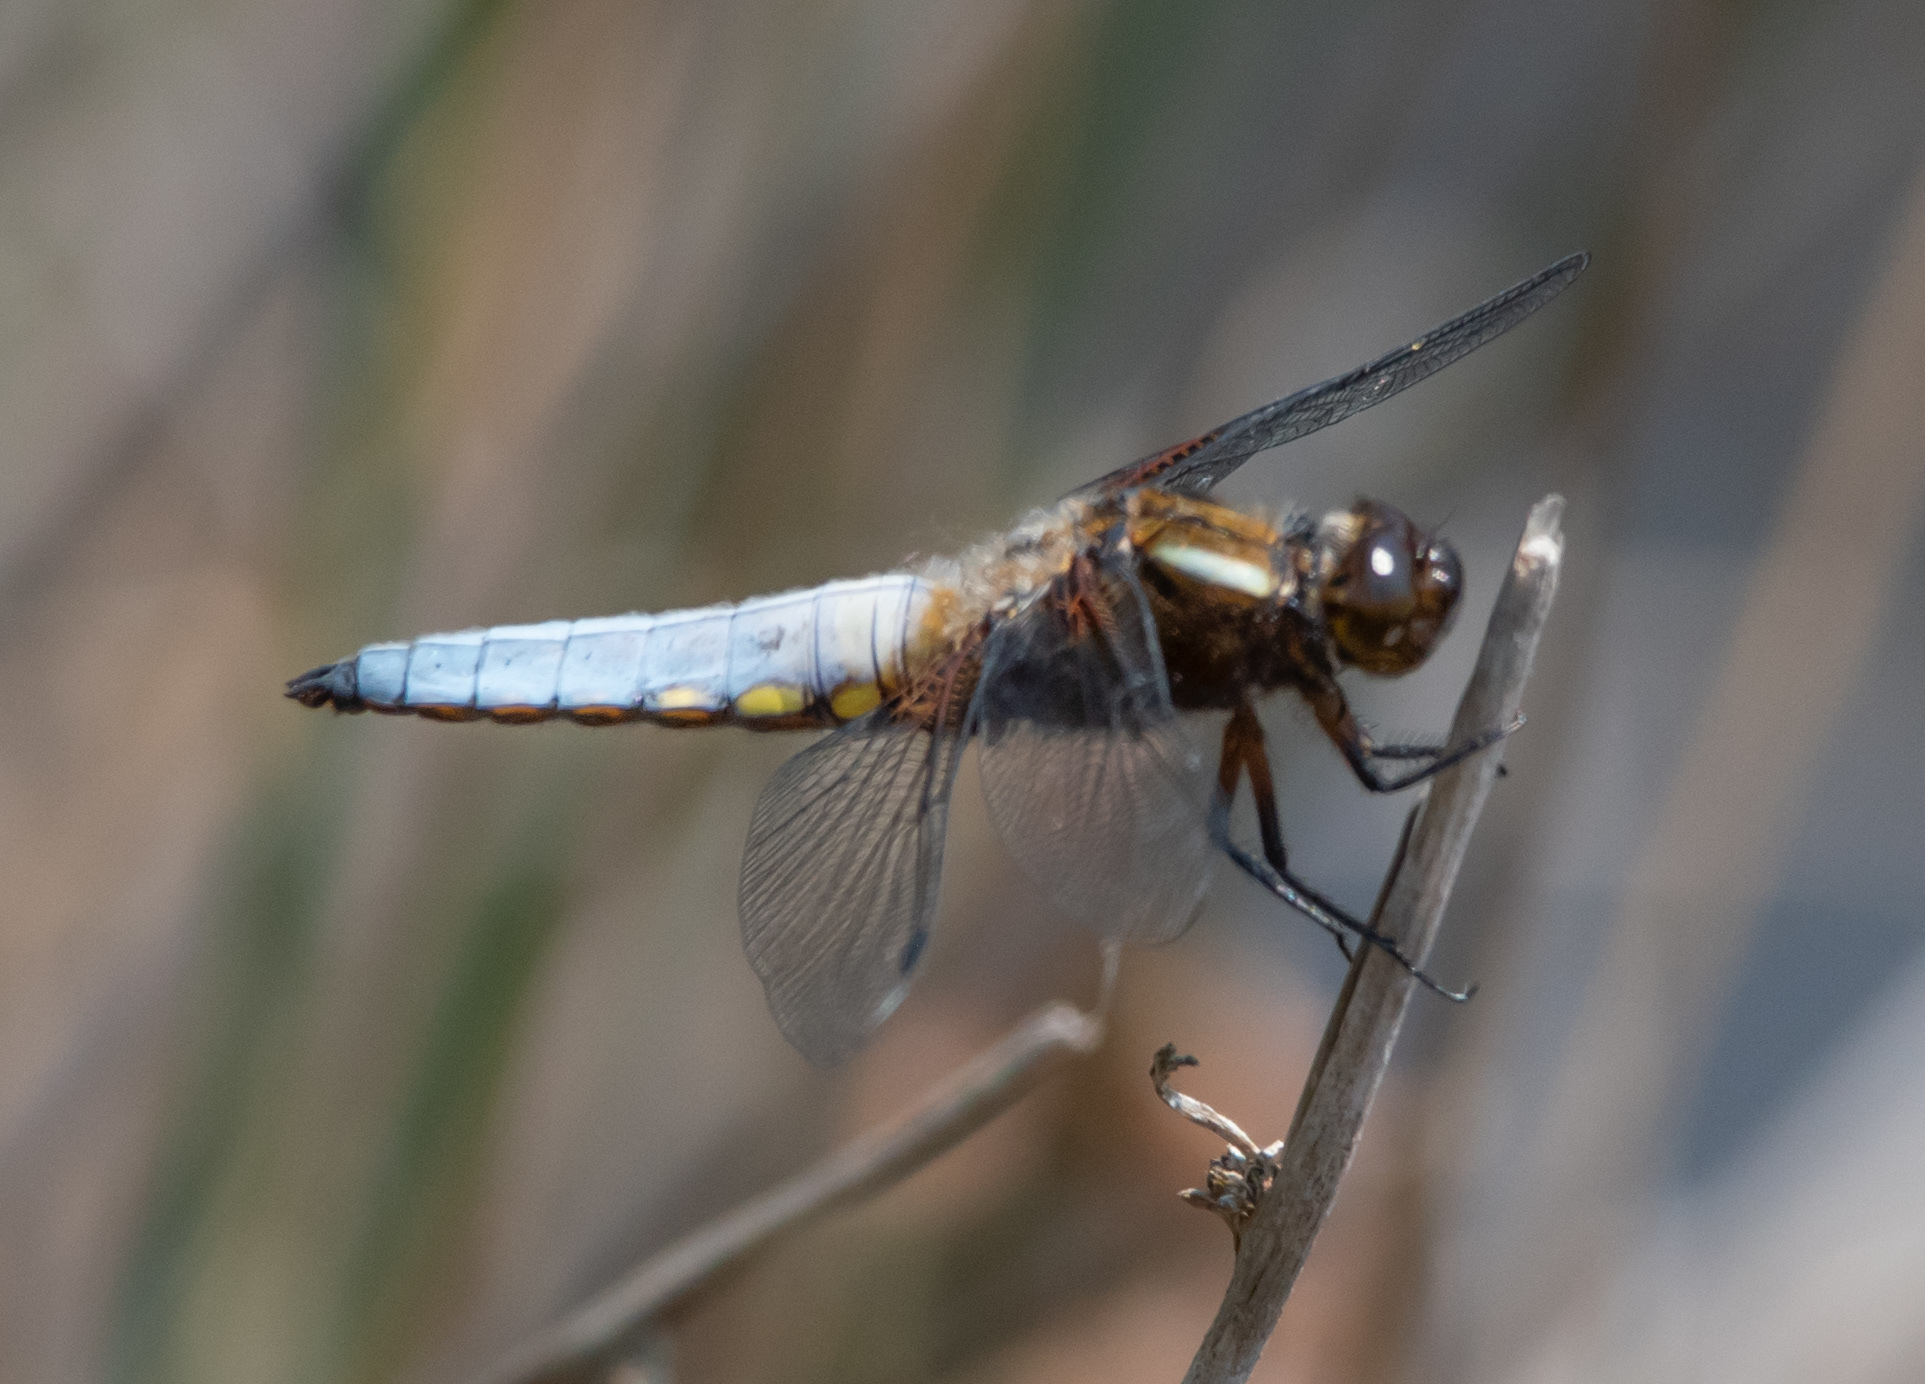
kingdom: Animalia
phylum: Arthropoda
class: Insecta
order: Odonata
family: Libellulidae
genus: Libellula
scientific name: Libellula depressa
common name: Broad-bodied chaser
